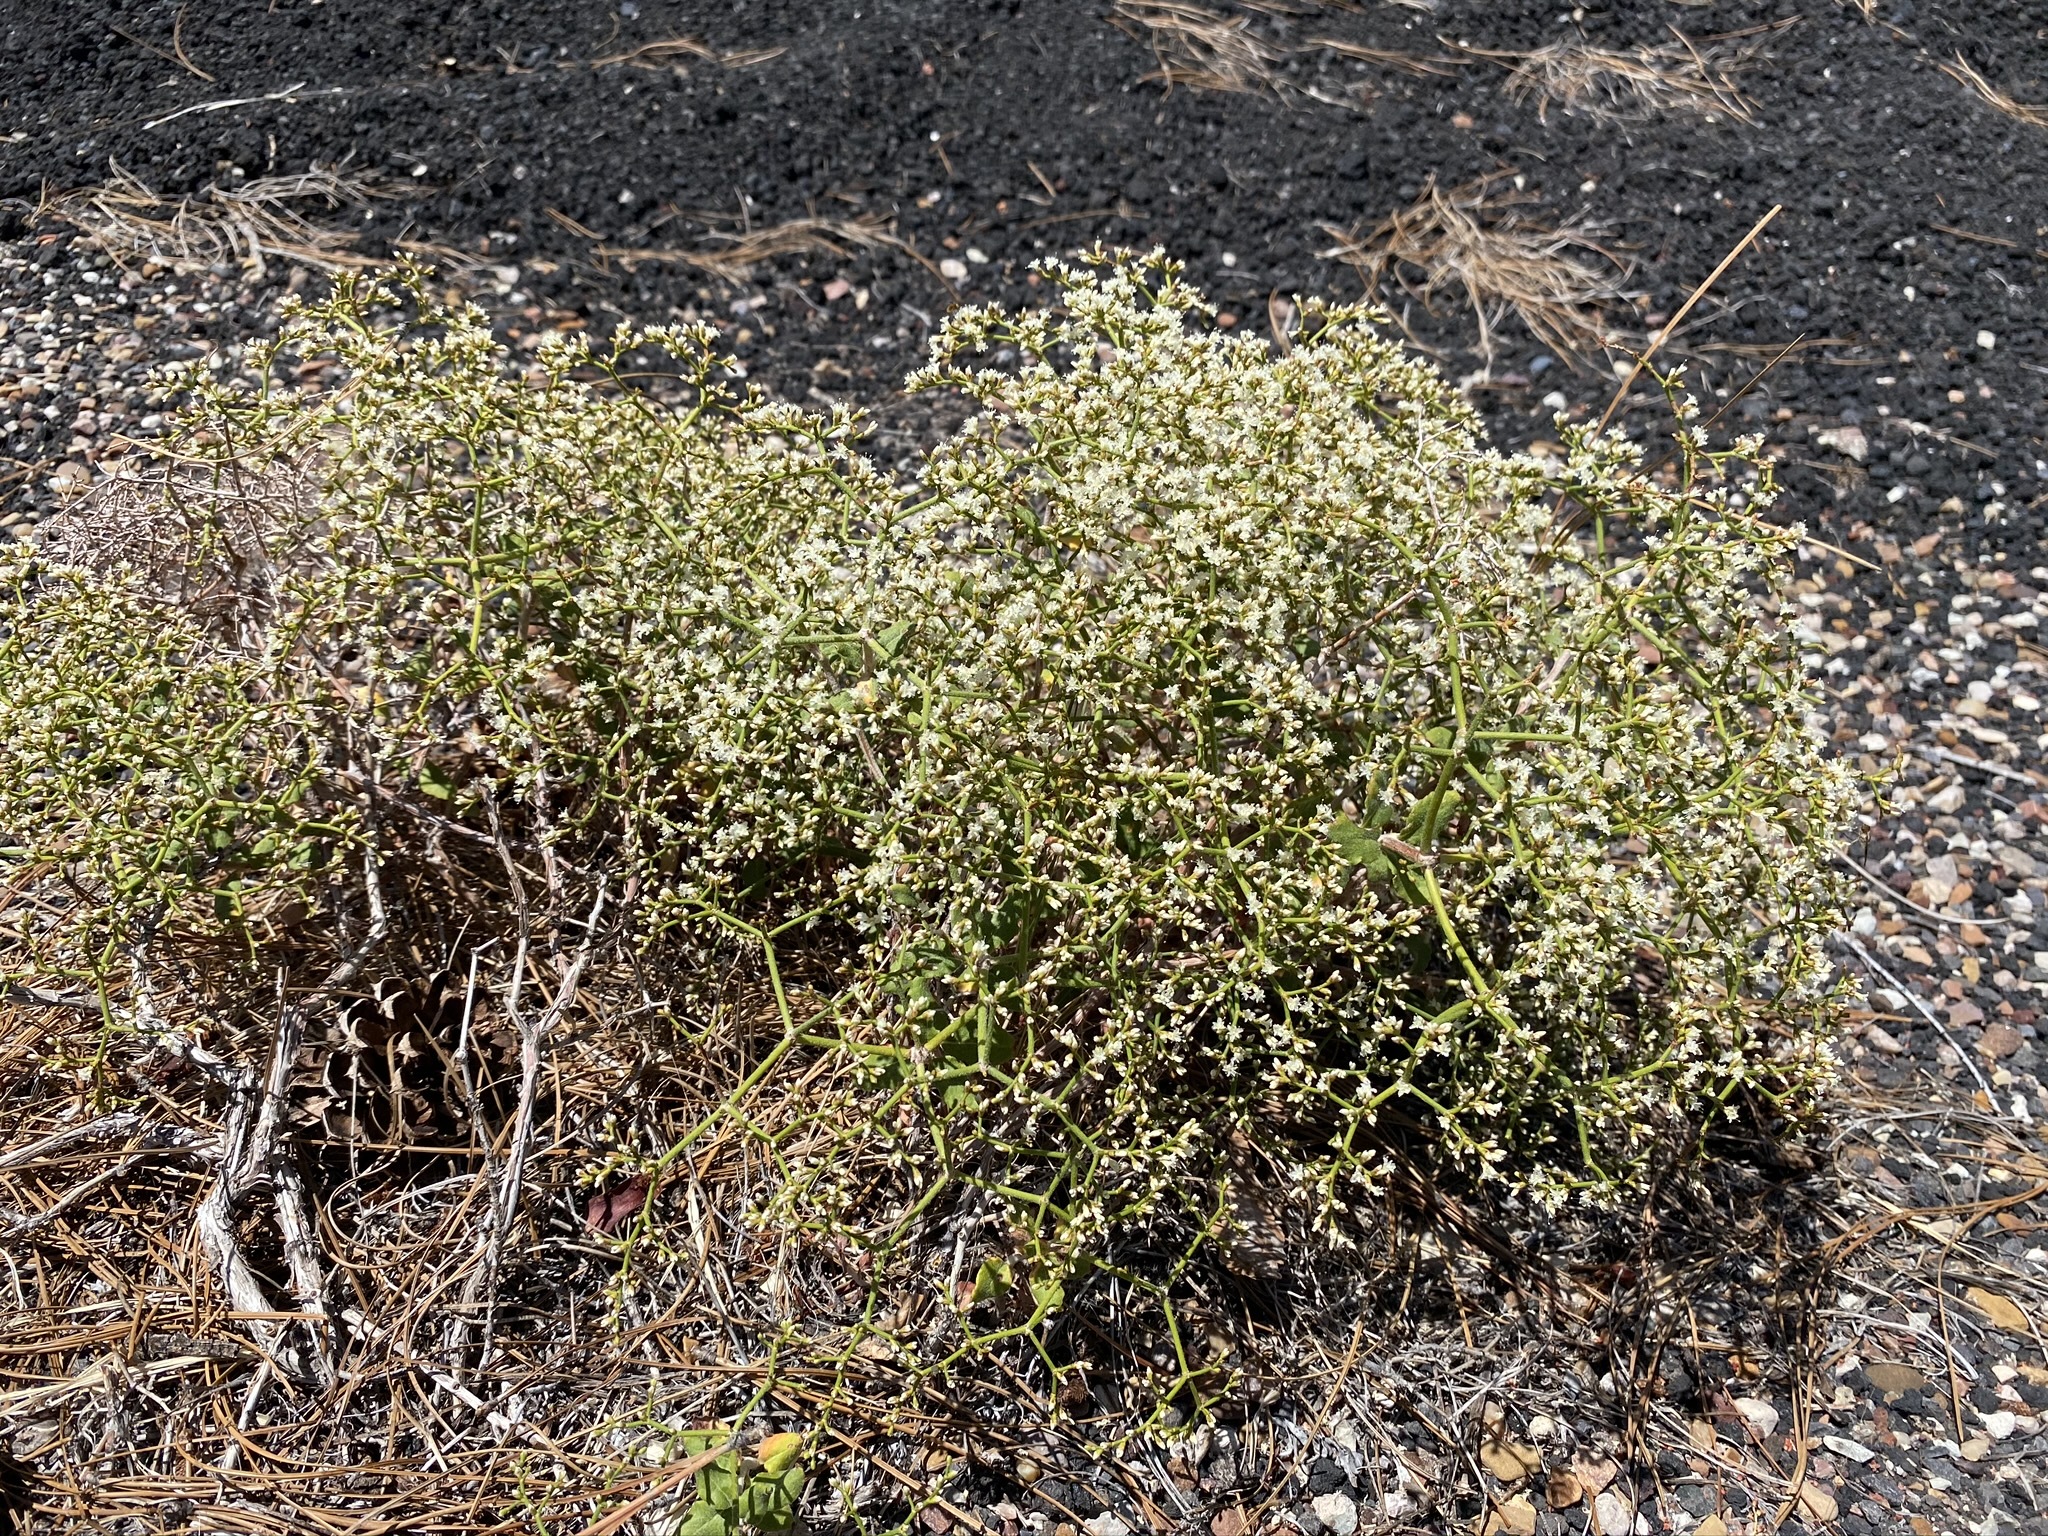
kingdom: Plantae
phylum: Tracheophyta
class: Magnoliopsida
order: Caryophyllales
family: Polygonaceae
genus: Eriogonum
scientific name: Eriogonum corymbosum
